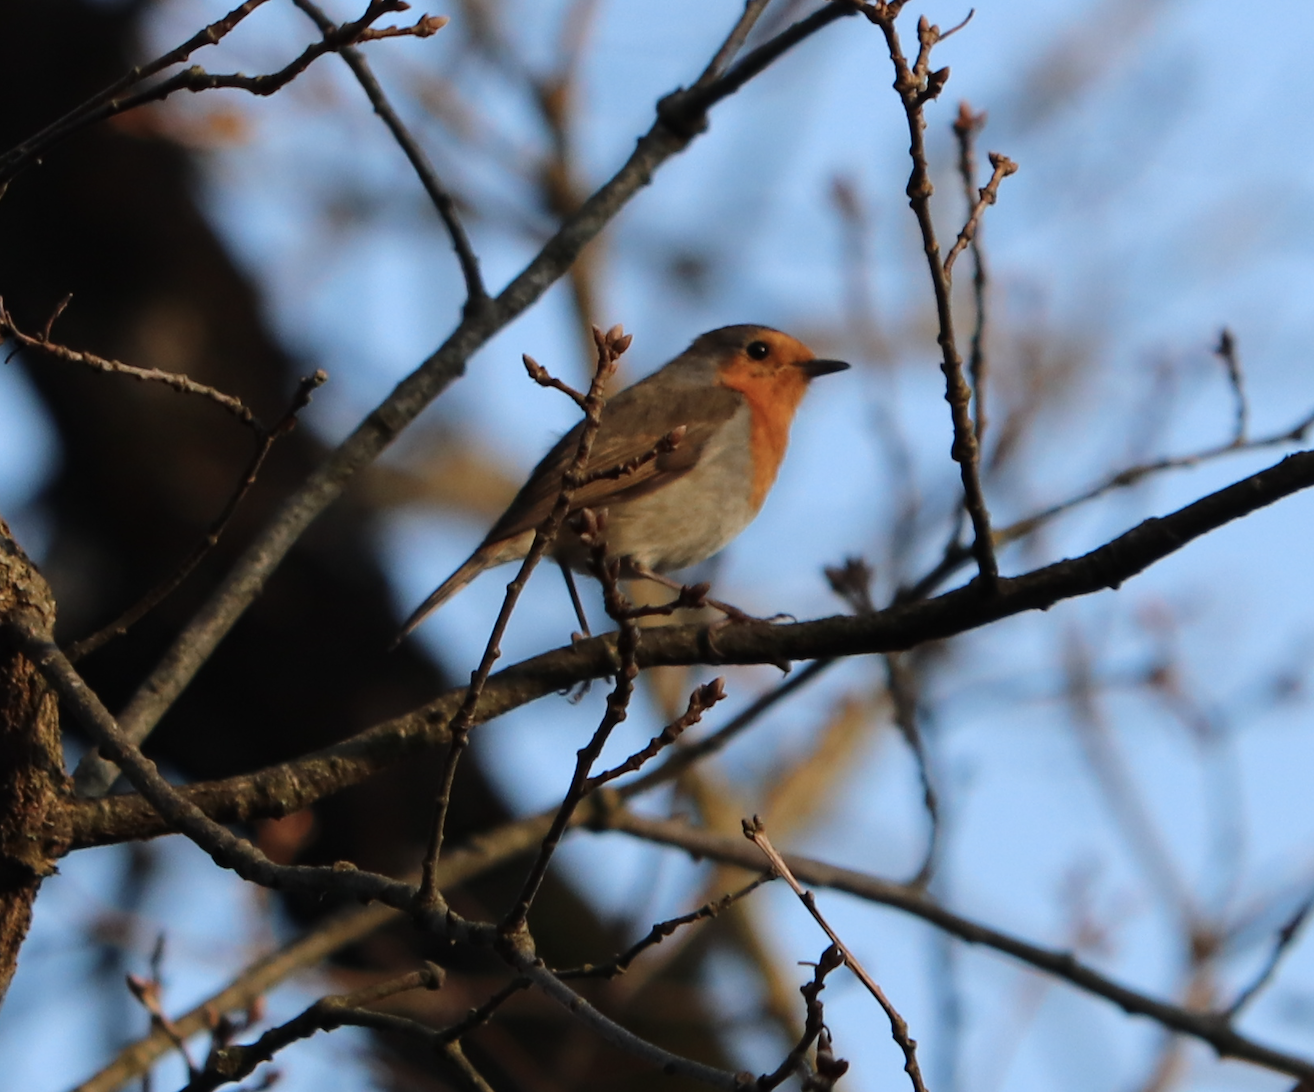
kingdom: Animalia
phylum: Chordata
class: Aves
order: Passeriformes
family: Muscicapidae
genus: Erithacus
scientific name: Erithacus rubecula
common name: European robin
